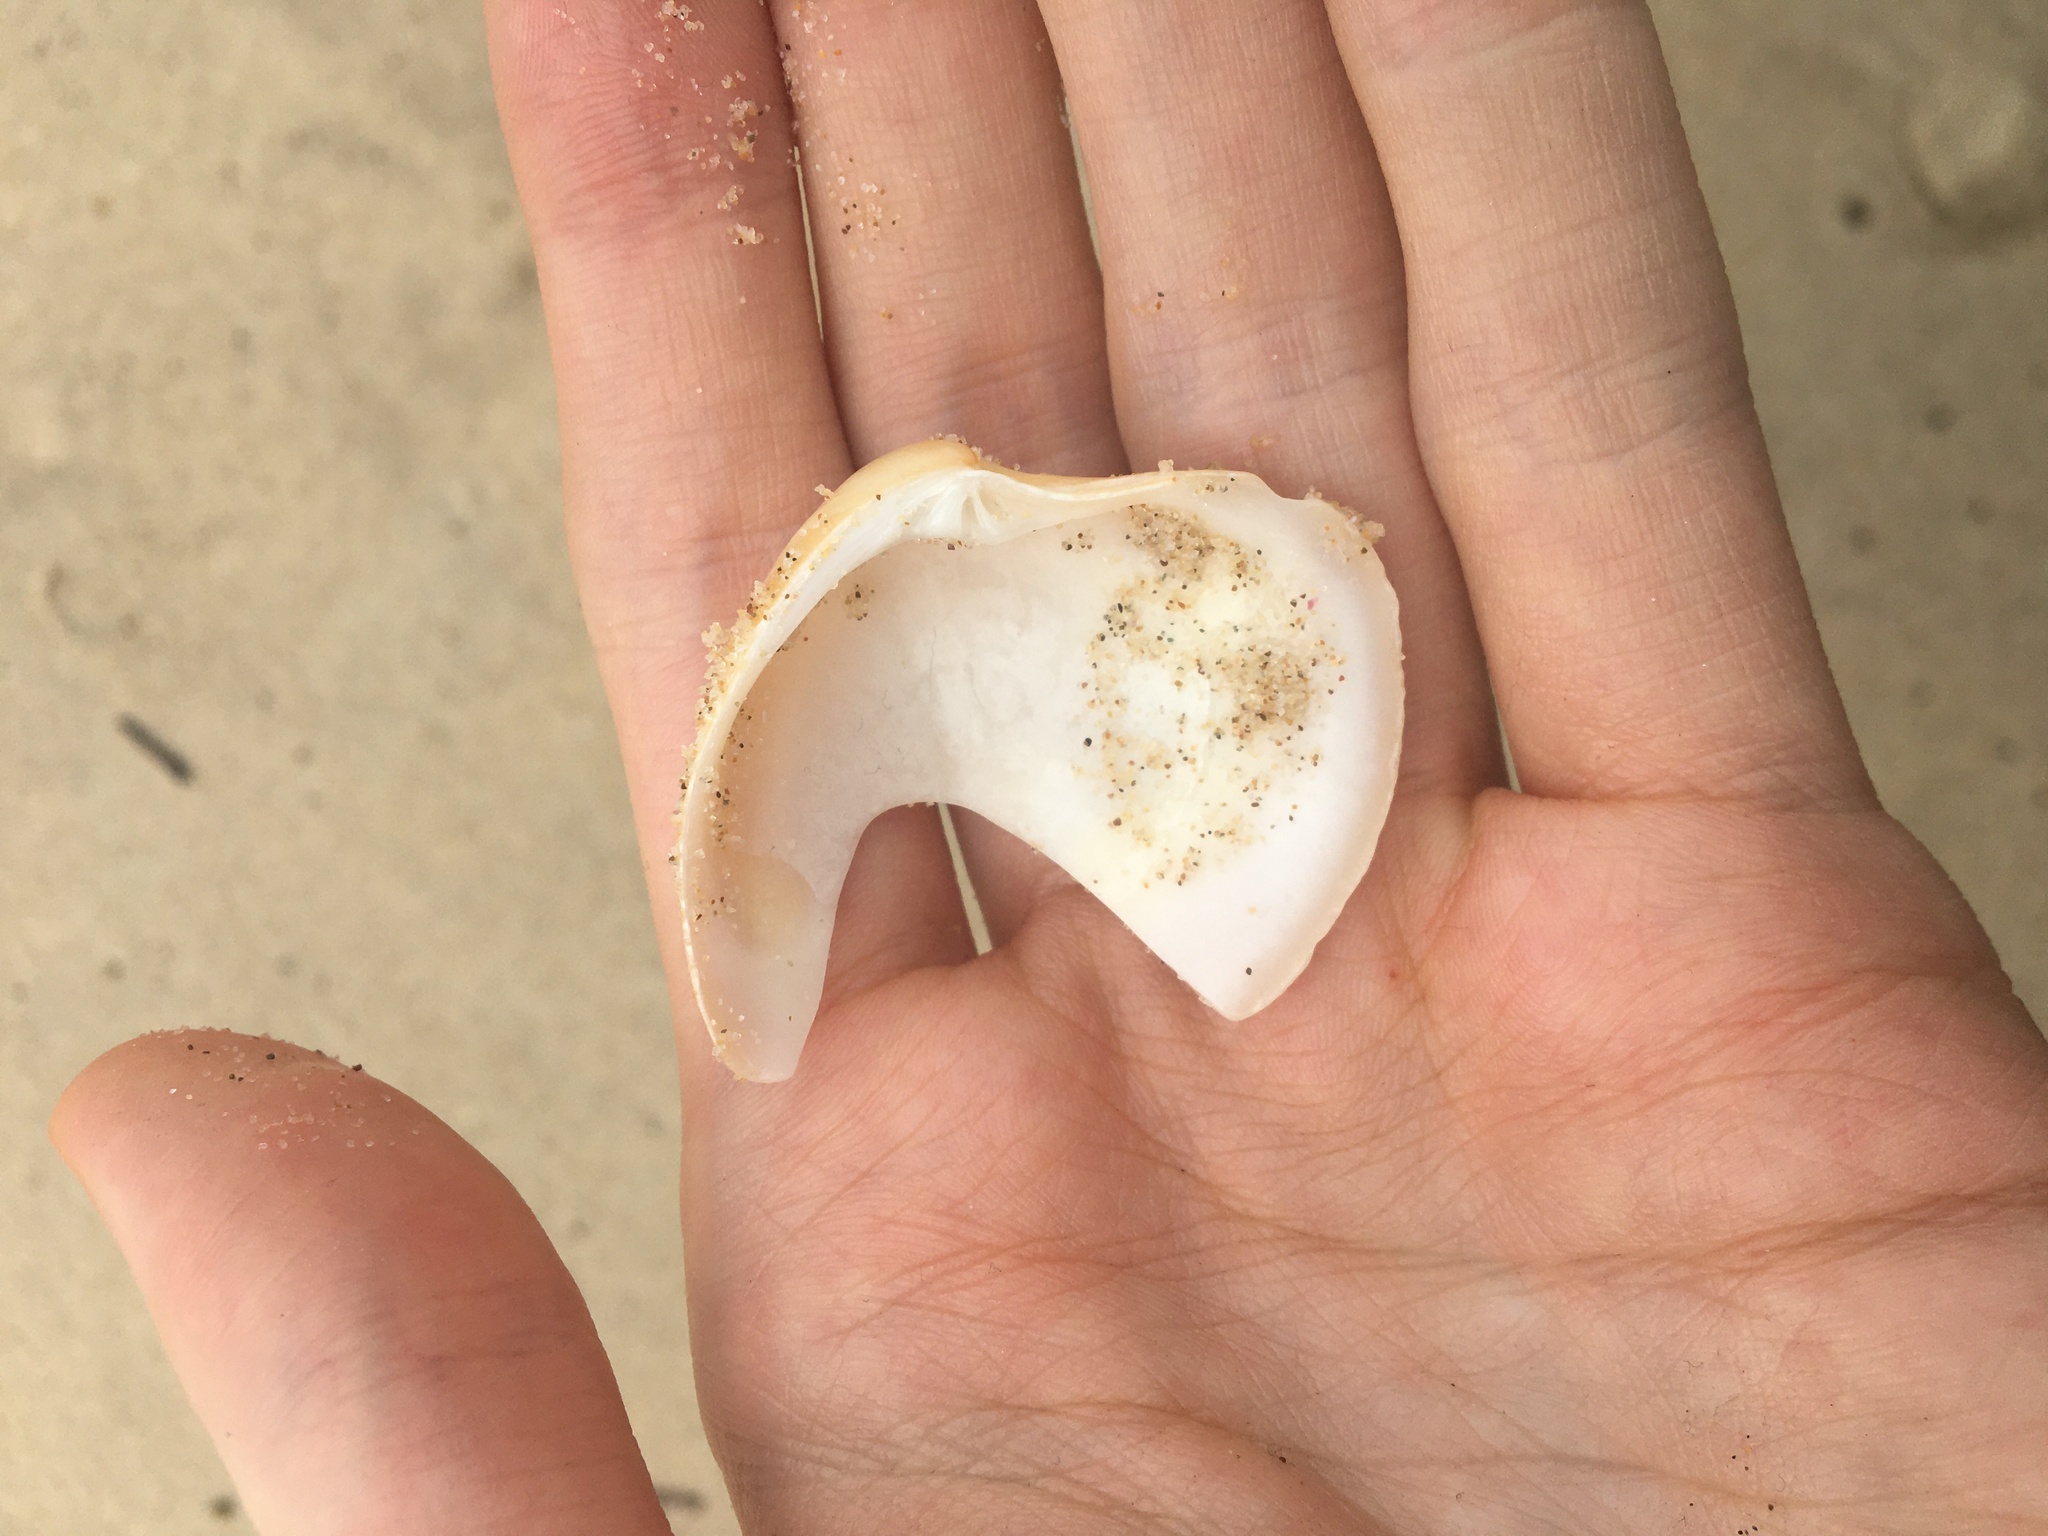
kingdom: Animalia
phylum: Mollusca
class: Bivalvia
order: Venerida
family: Veneridae
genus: Bassina
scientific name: Bassina pachyphylla
